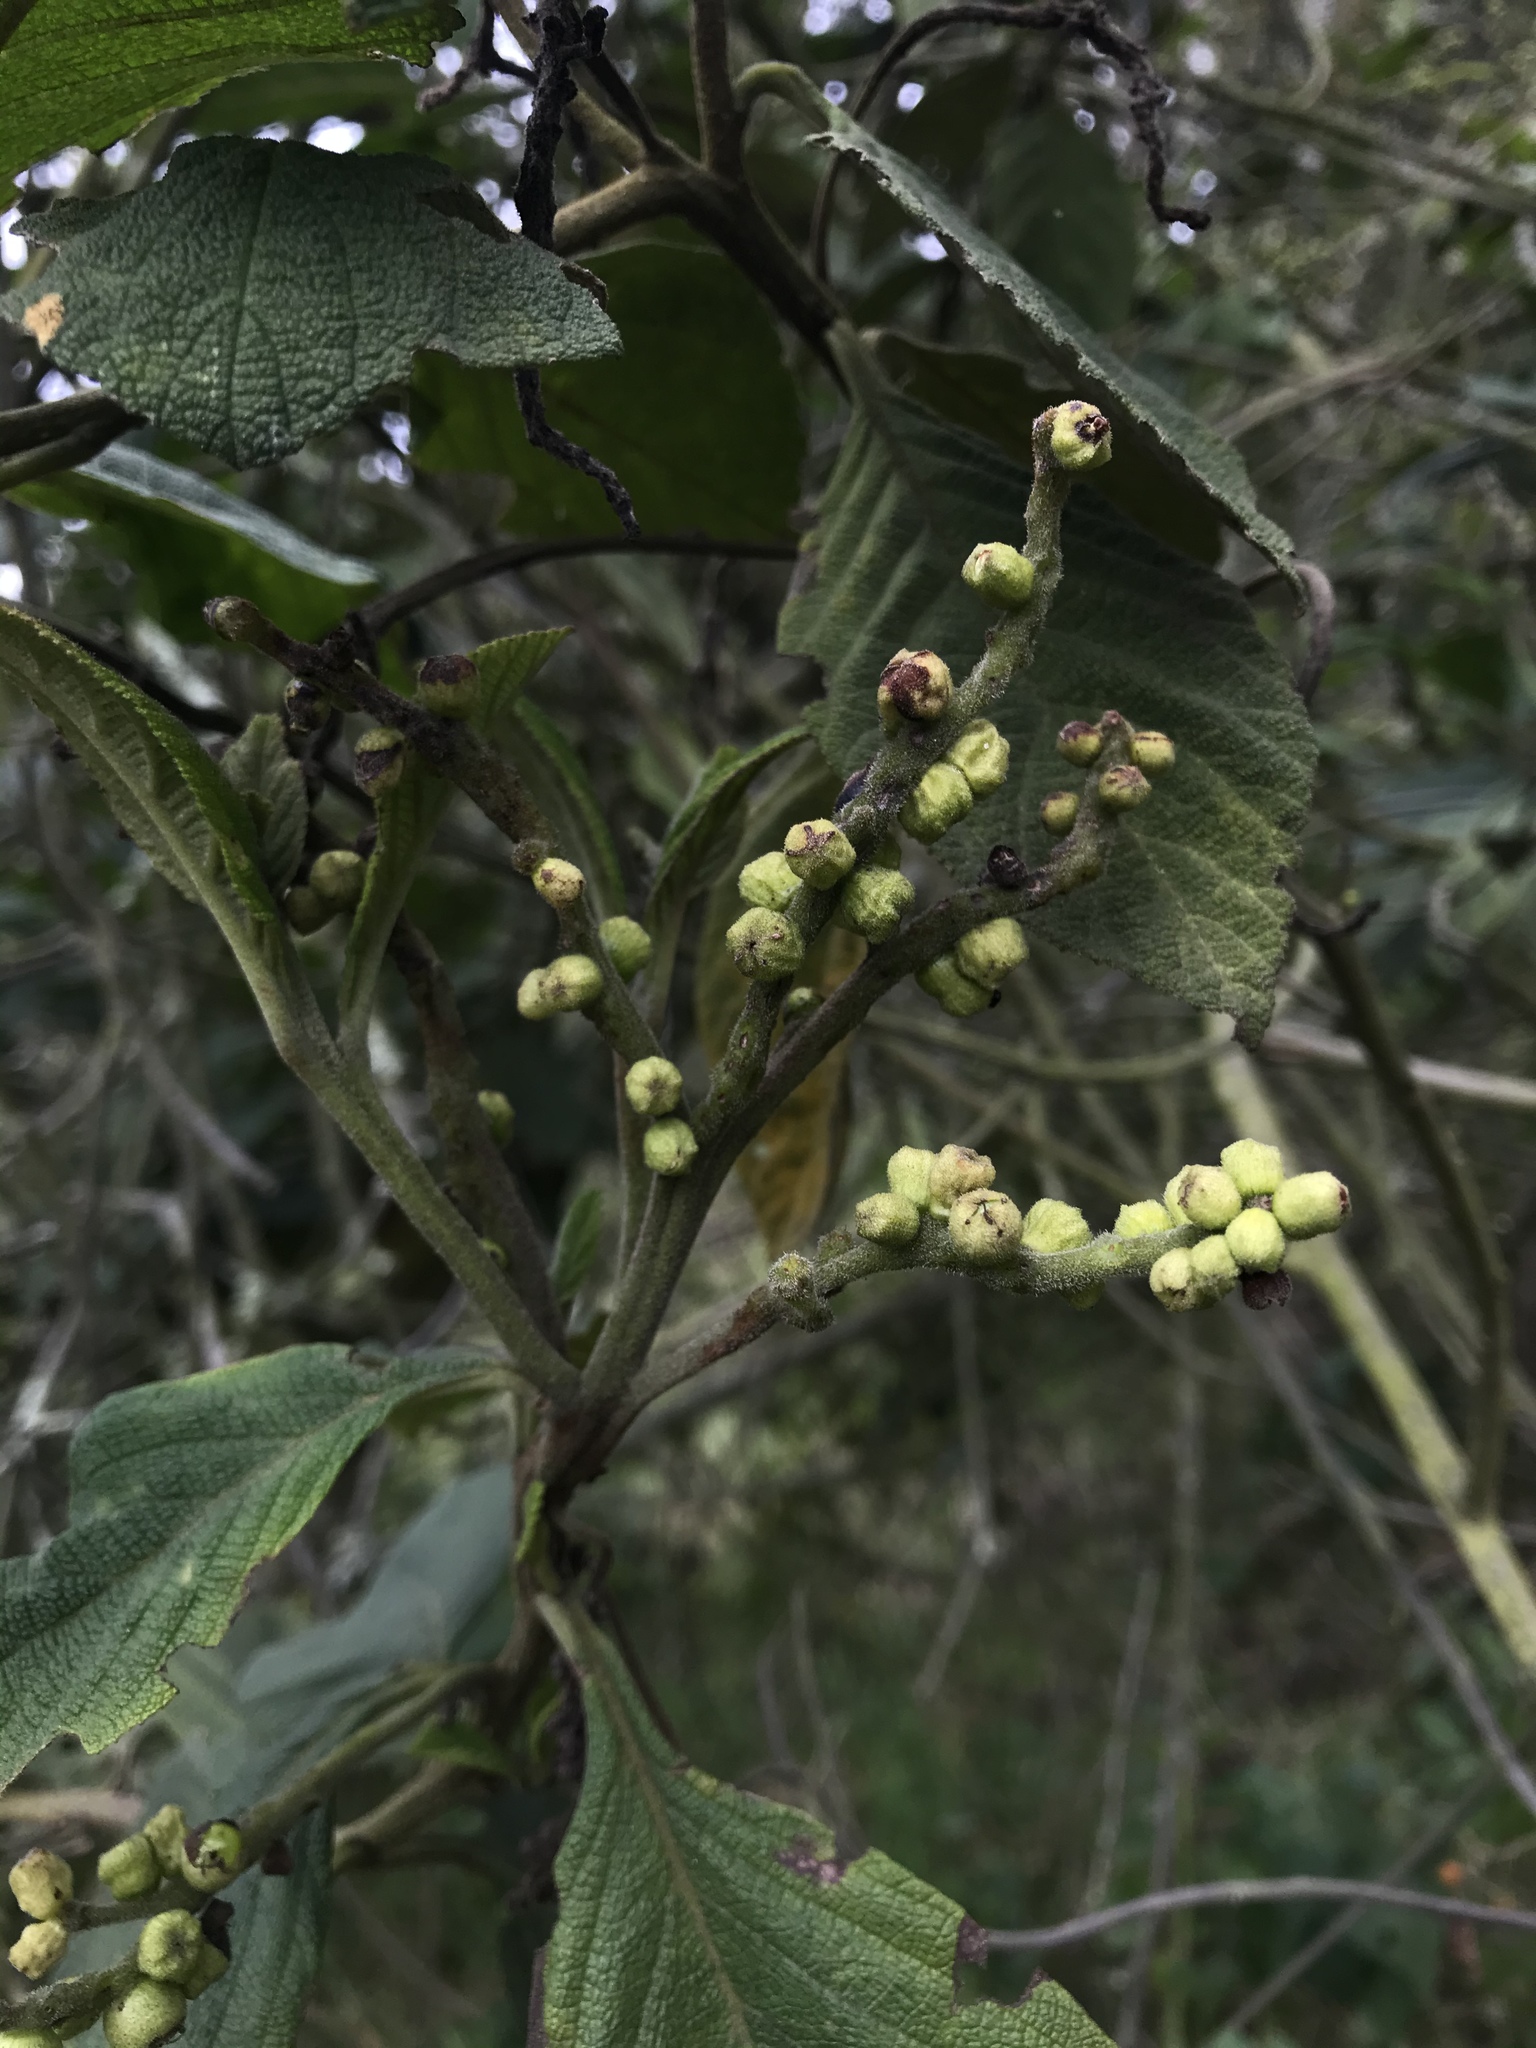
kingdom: Plantae
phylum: Tracheophyta
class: Magnoliopsida
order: Boraginales
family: Cordiaceae
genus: Varronia
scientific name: Varronia cylindrostachya
